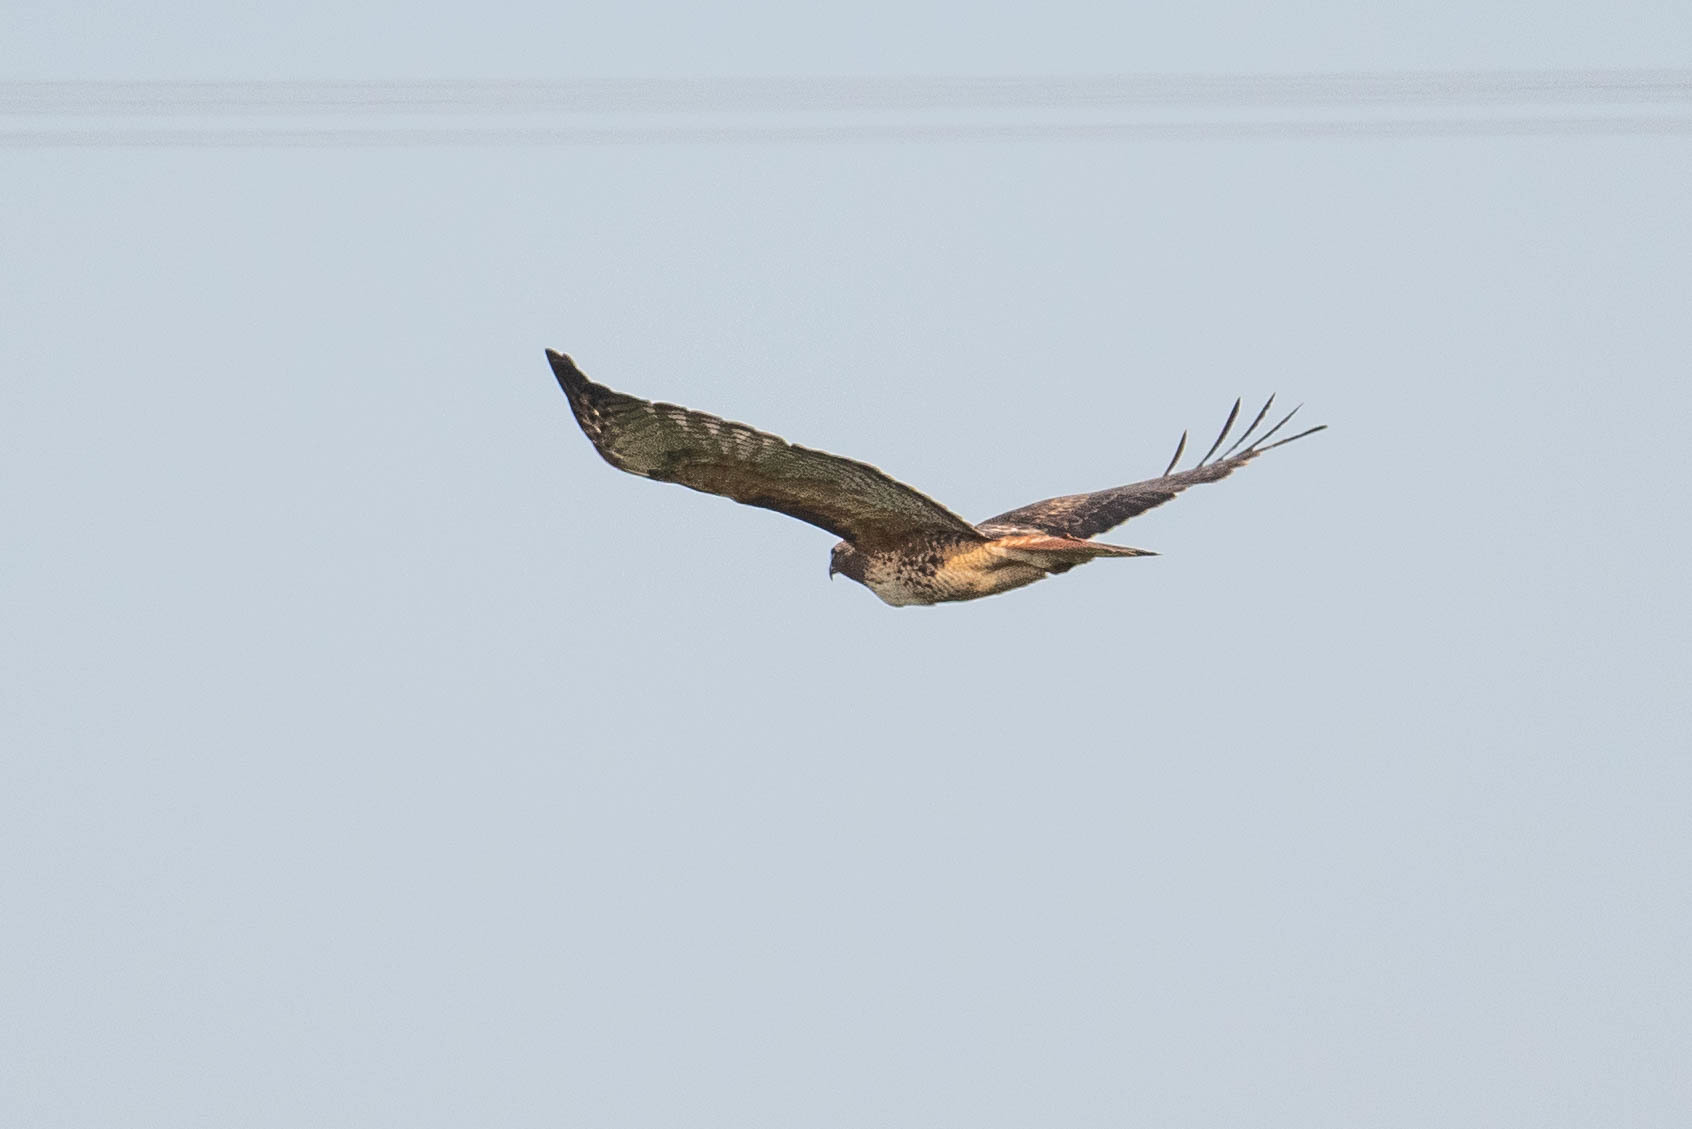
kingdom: Animalia
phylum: Chordata
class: Aves
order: Accipitriformes
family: Accipitridae
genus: Buteo
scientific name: Buteo jamaicensis
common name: Red-tailed hawk
